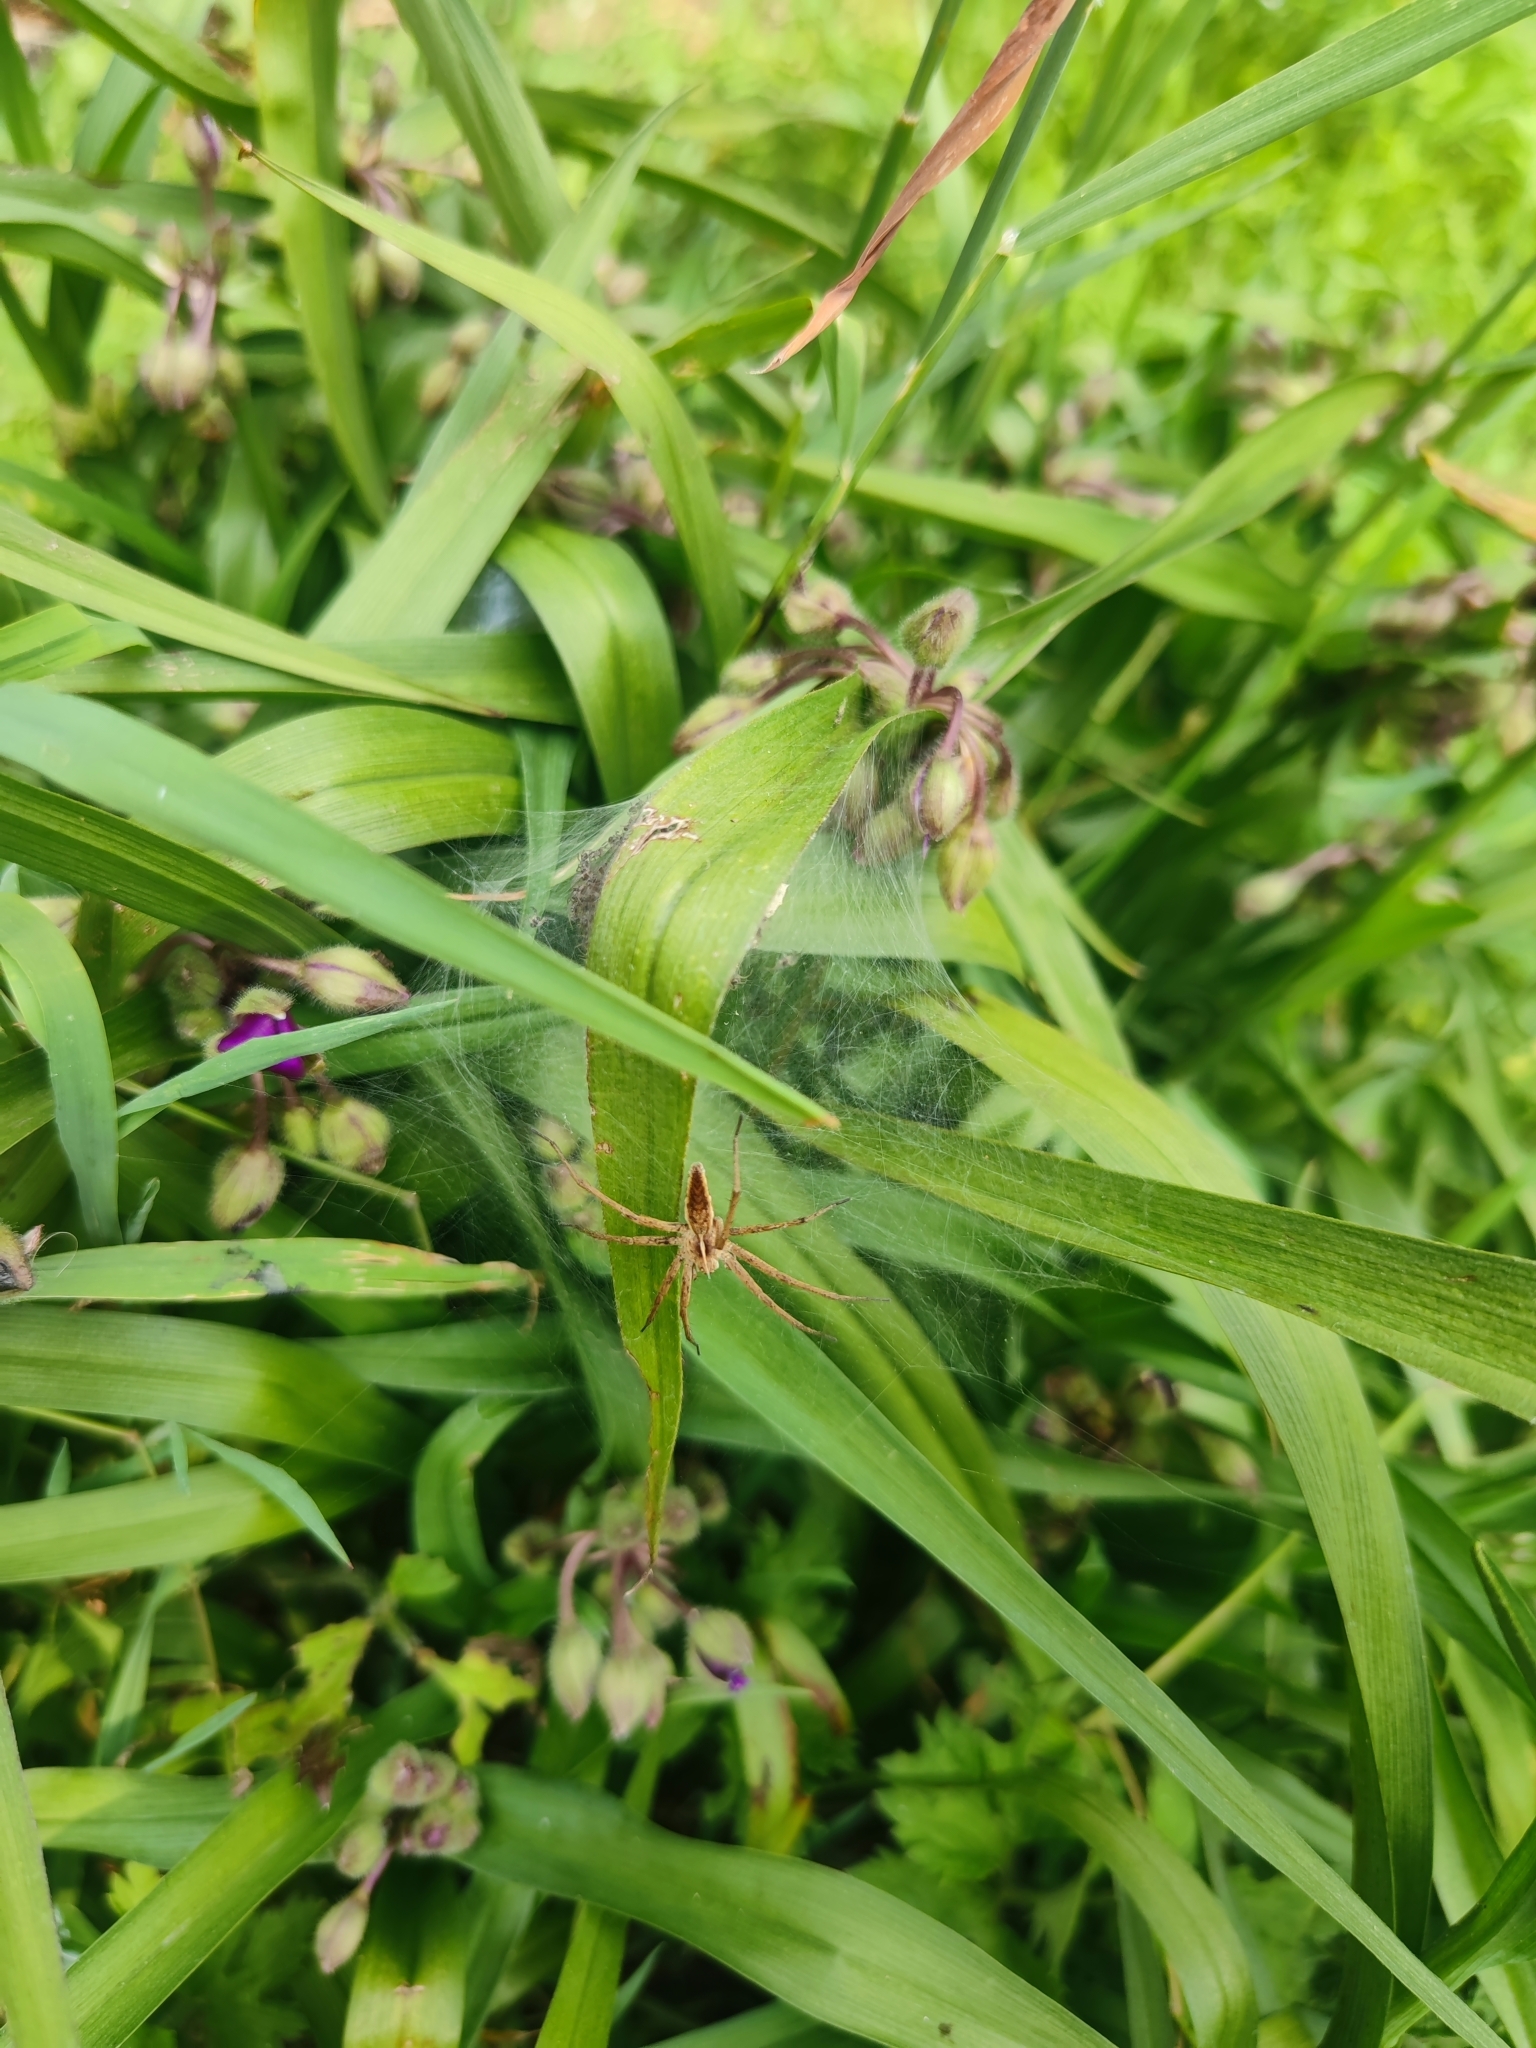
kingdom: Animalia
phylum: Arthropoda
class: Arachnida
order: Araneae
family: Pisauridae
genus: Pisaura
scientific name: Pisaura mirabilis
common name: Tent spider
